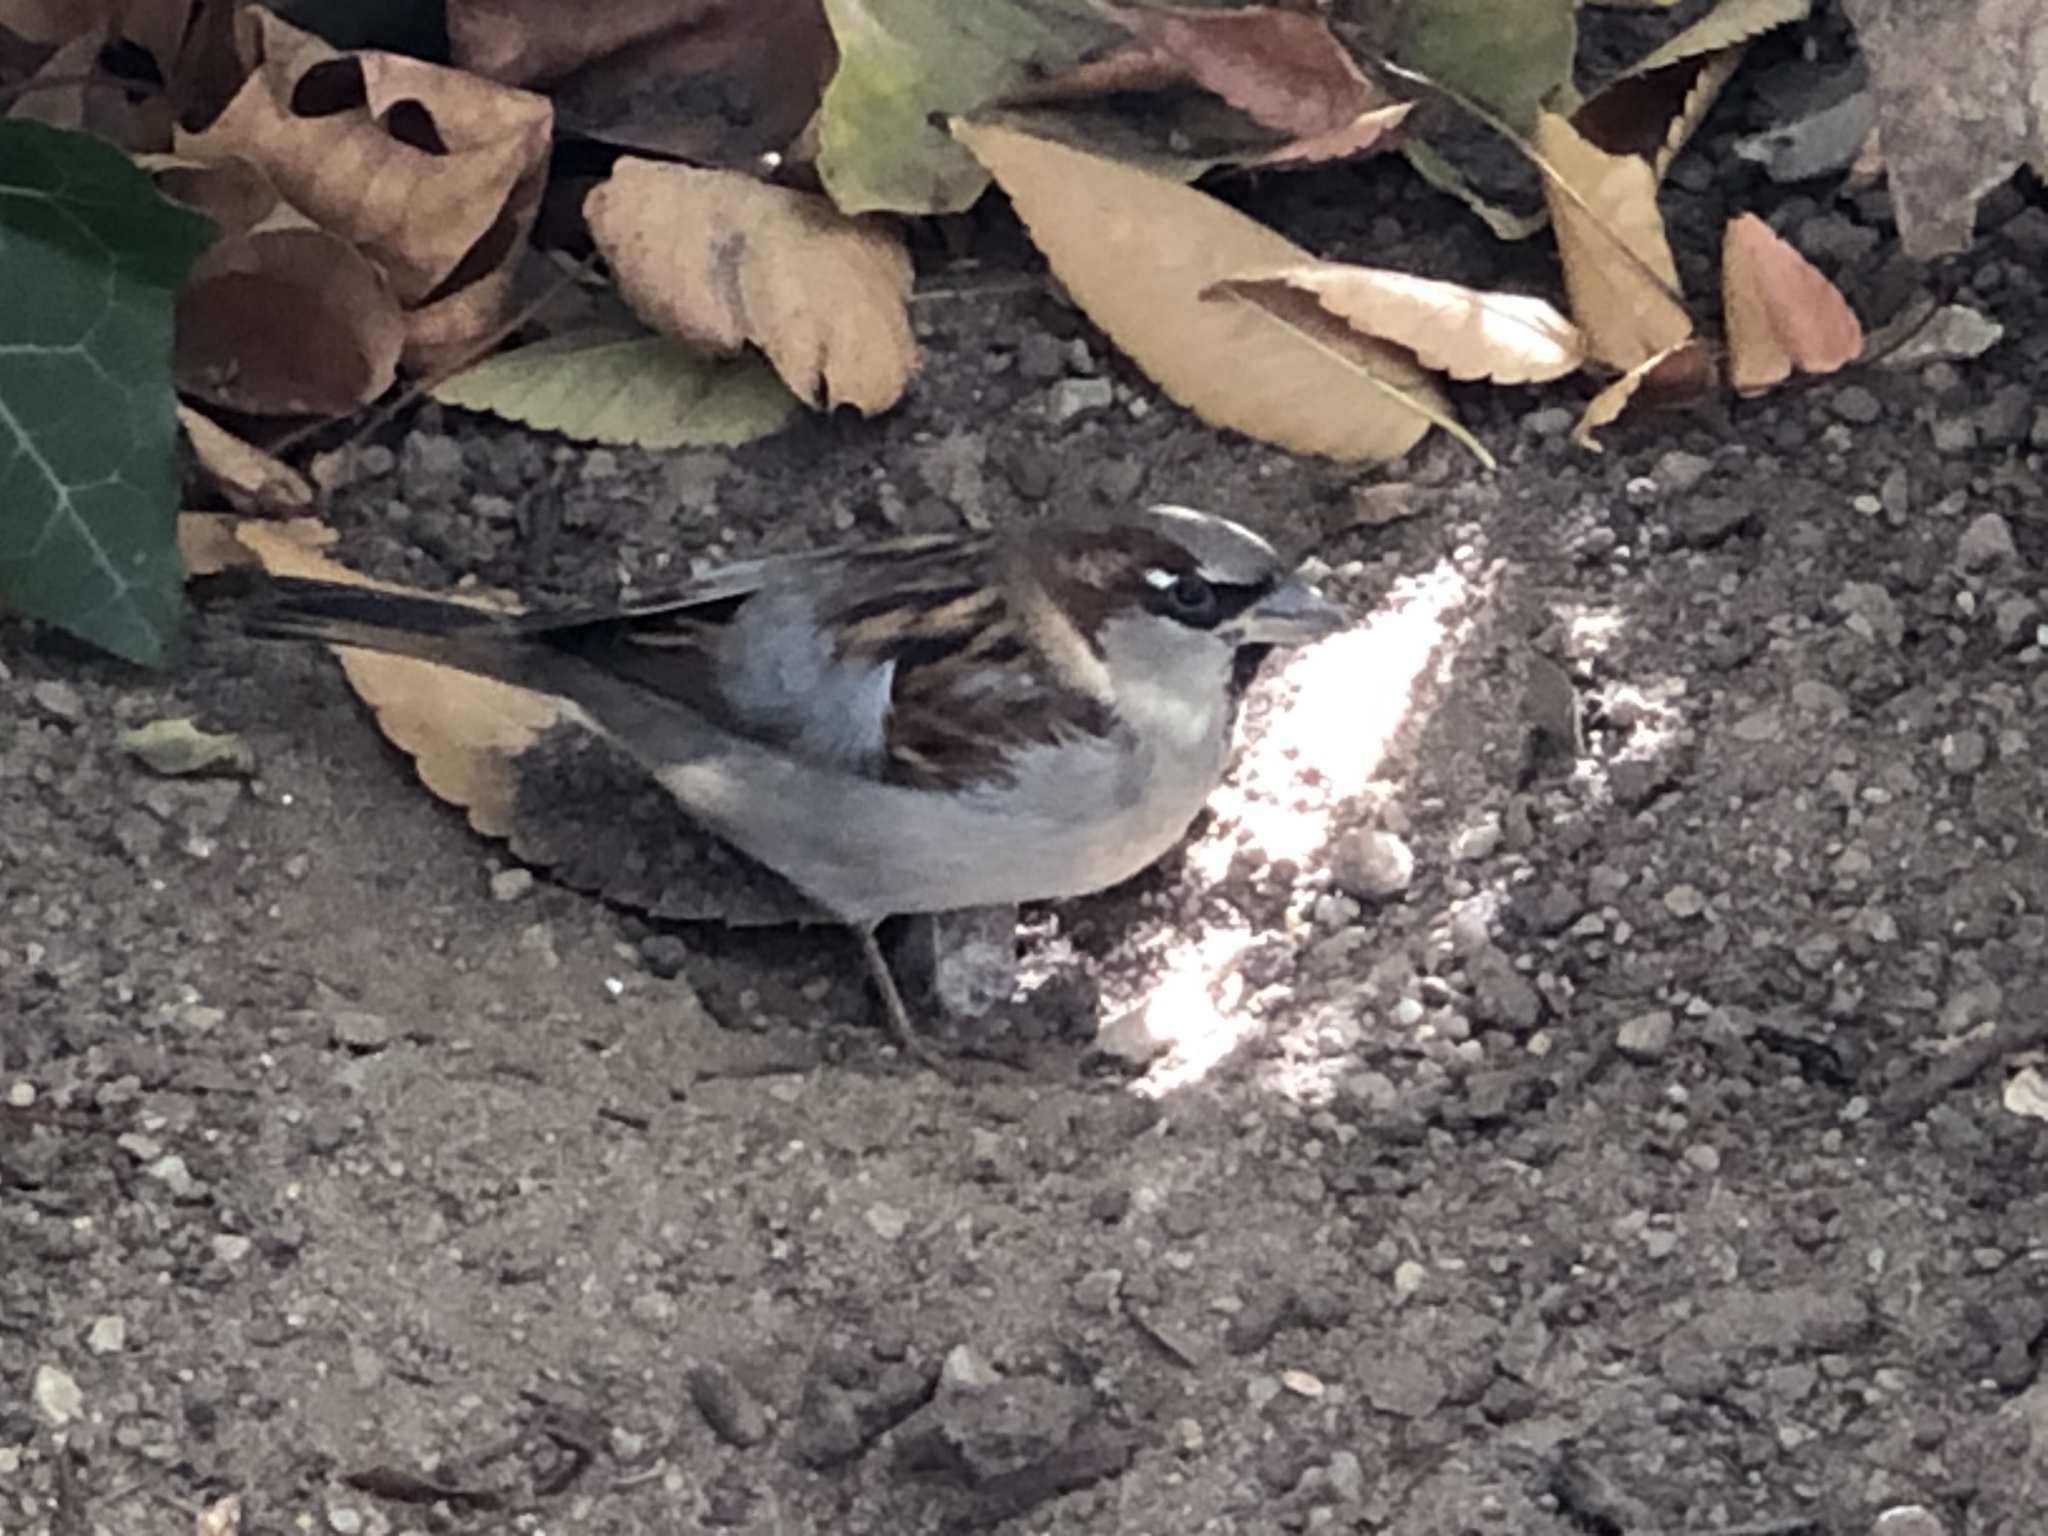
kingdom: Animalia
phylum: Chordata
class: Aves
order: Passeriformes
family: Passeridae
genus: Passer
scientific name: Passer domesticus
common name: House sparrow
